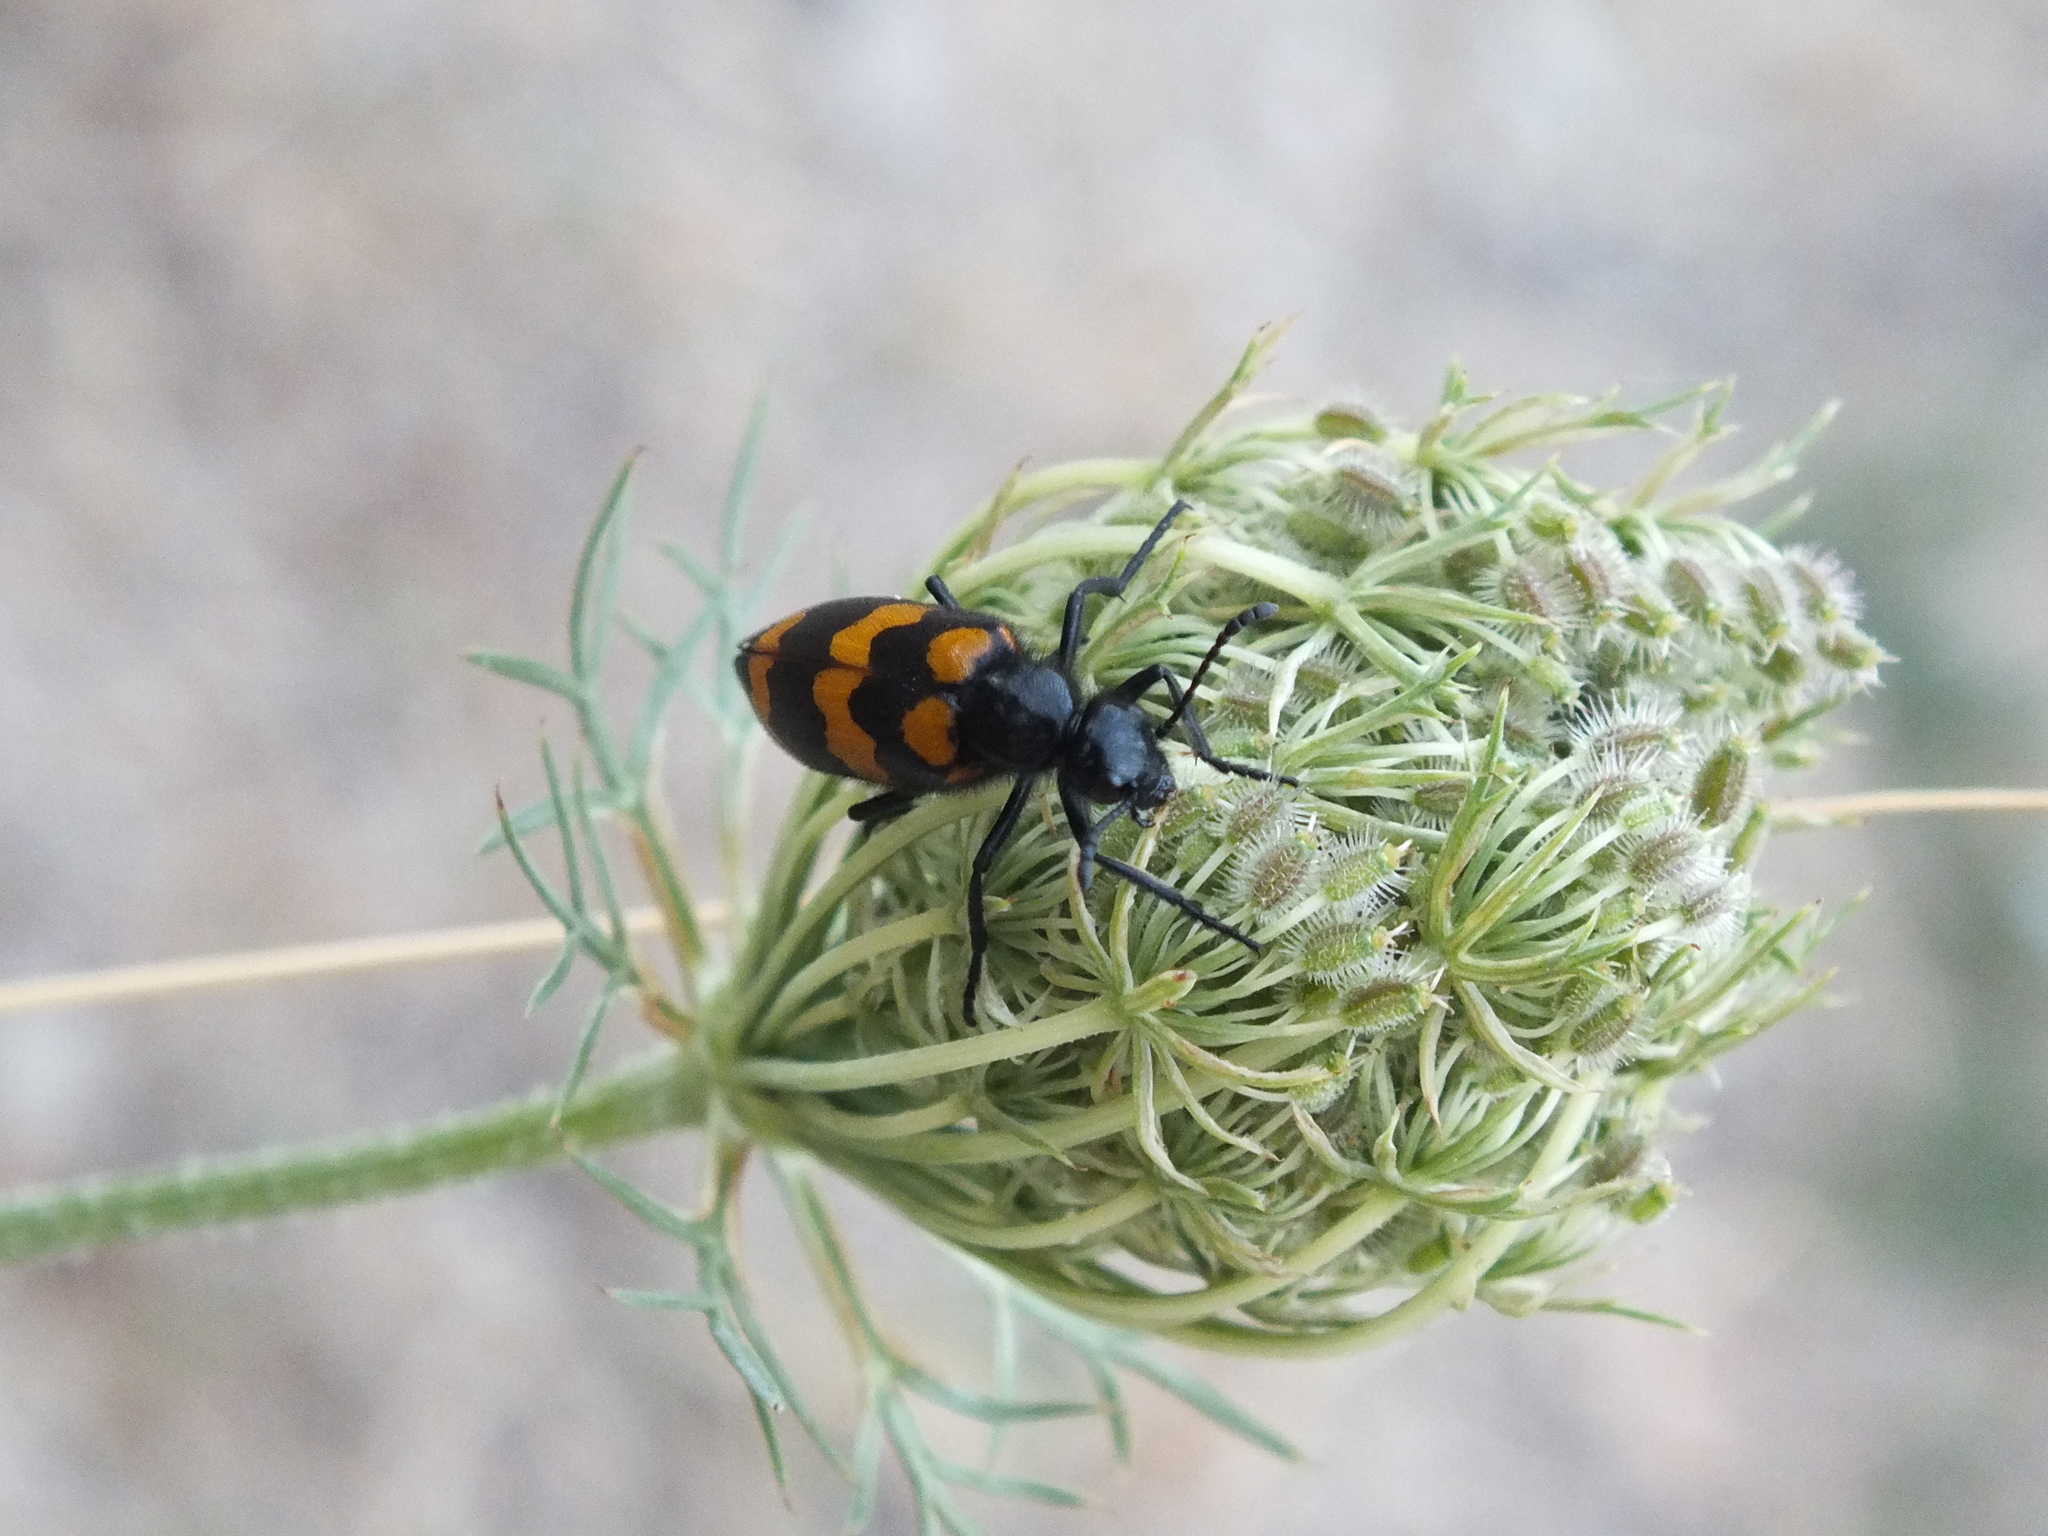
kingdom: Animalia
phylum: Arthropoda
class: Insecta
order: Coleoptera
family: Meloidae
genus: Mylabris
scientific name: Mylabris variabilis
